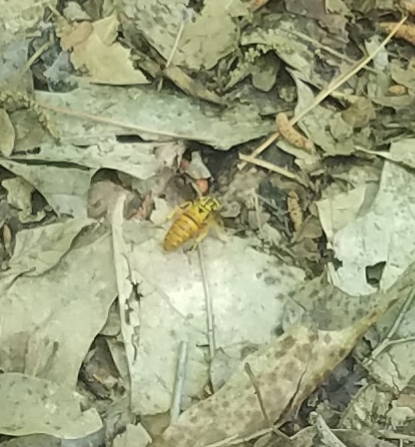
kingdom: Animalia
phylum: Arthropoda
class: Insecta
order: Hymenoptera
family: Vespidae
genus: Vespula
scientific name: Vespula squamosa
